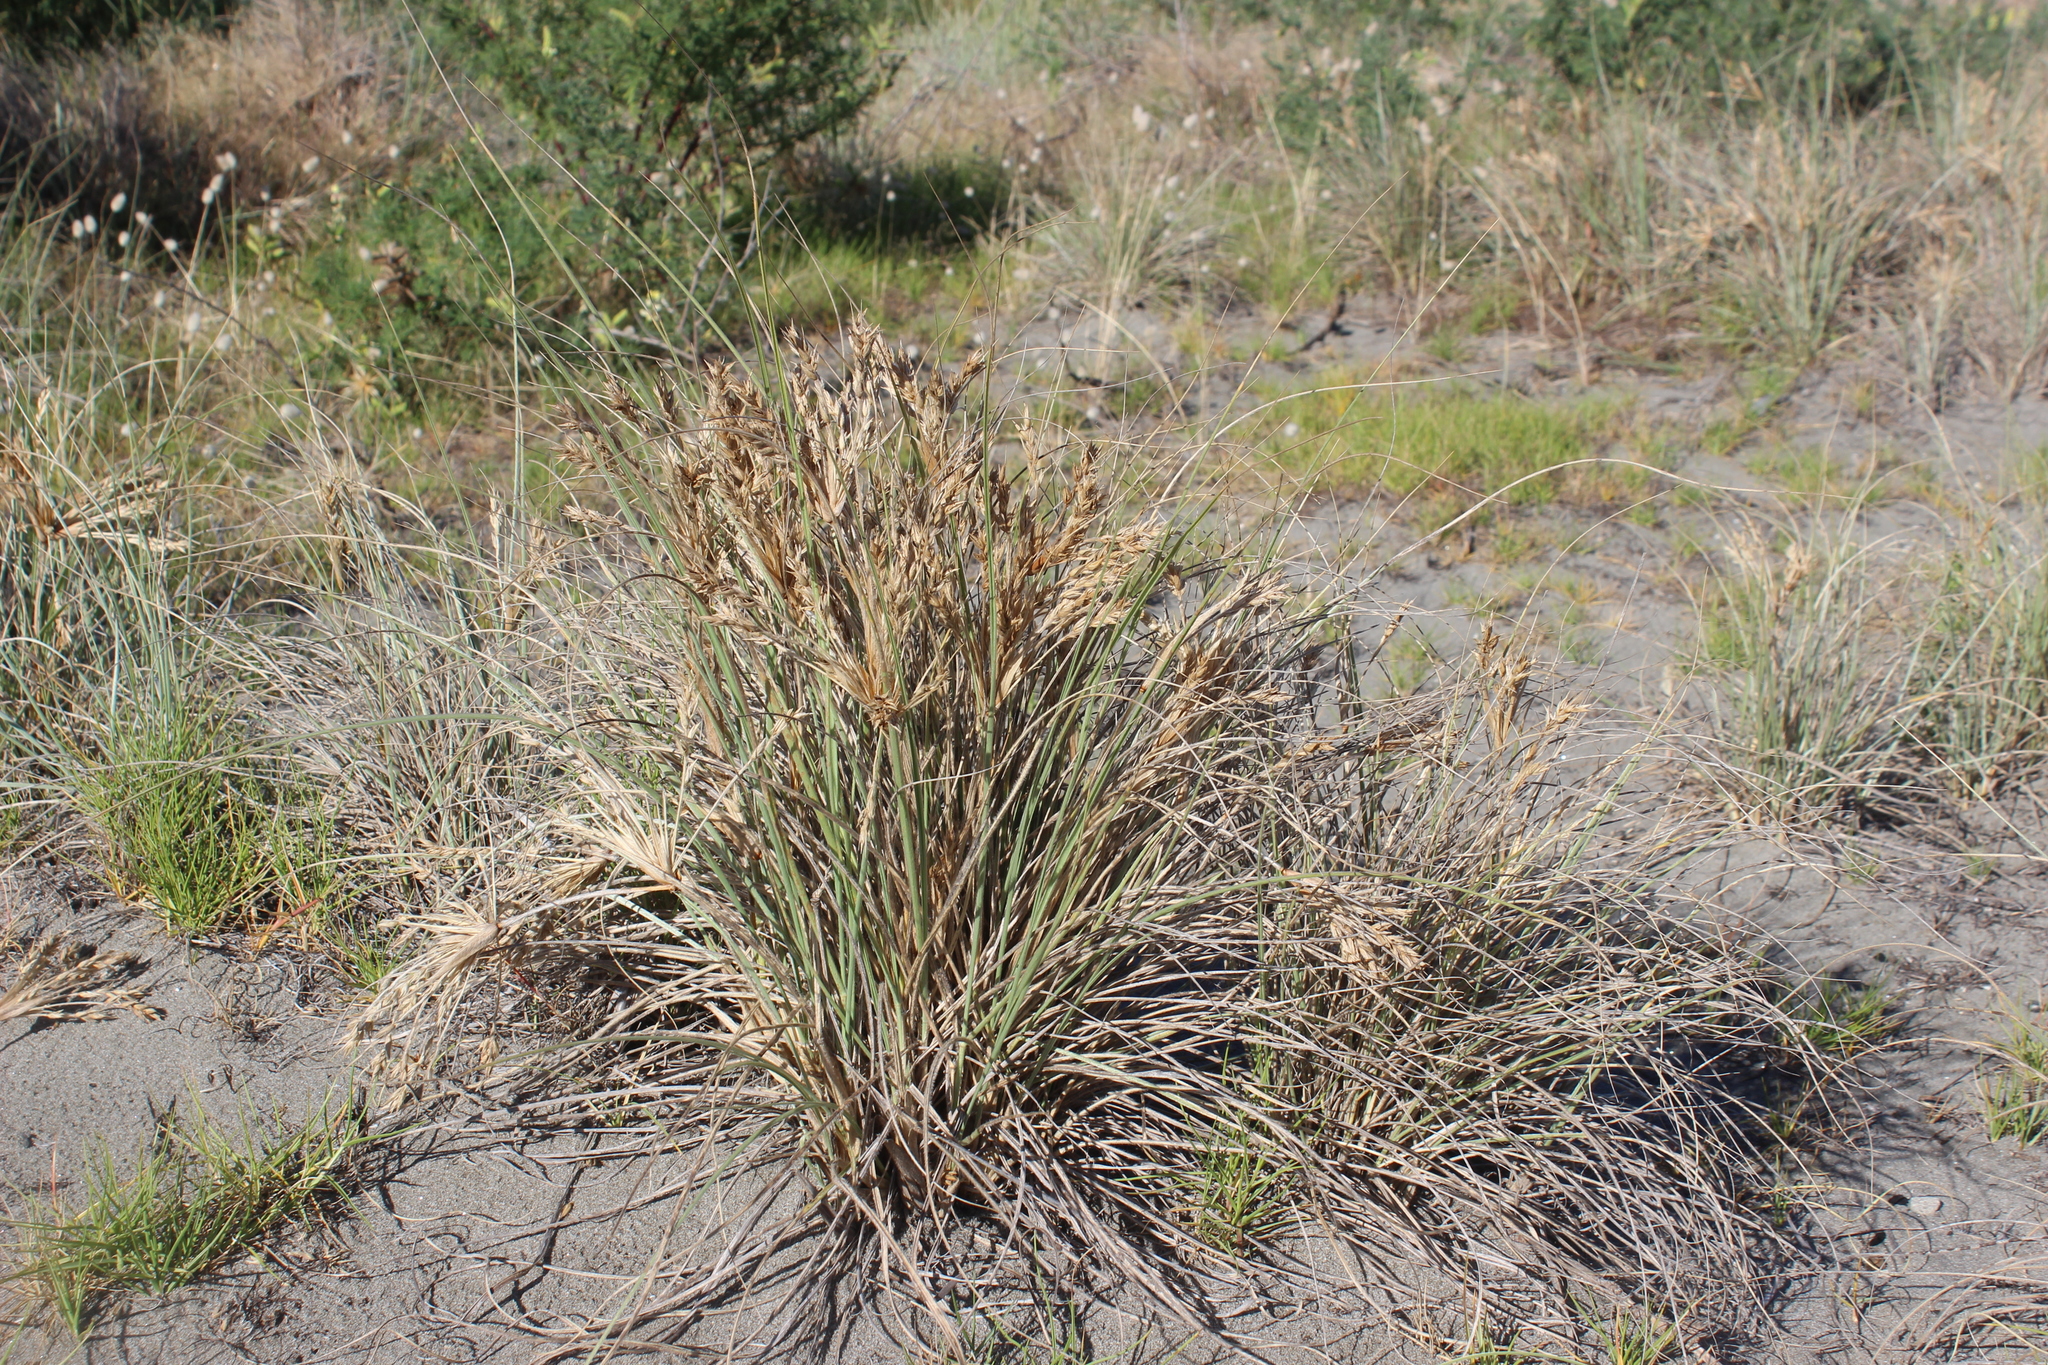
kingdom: Plantae
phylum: Tracheophyta
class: Liliopsida
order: Poales
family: Poaceae
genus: Spinifex
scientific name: Spinifex sericeus
